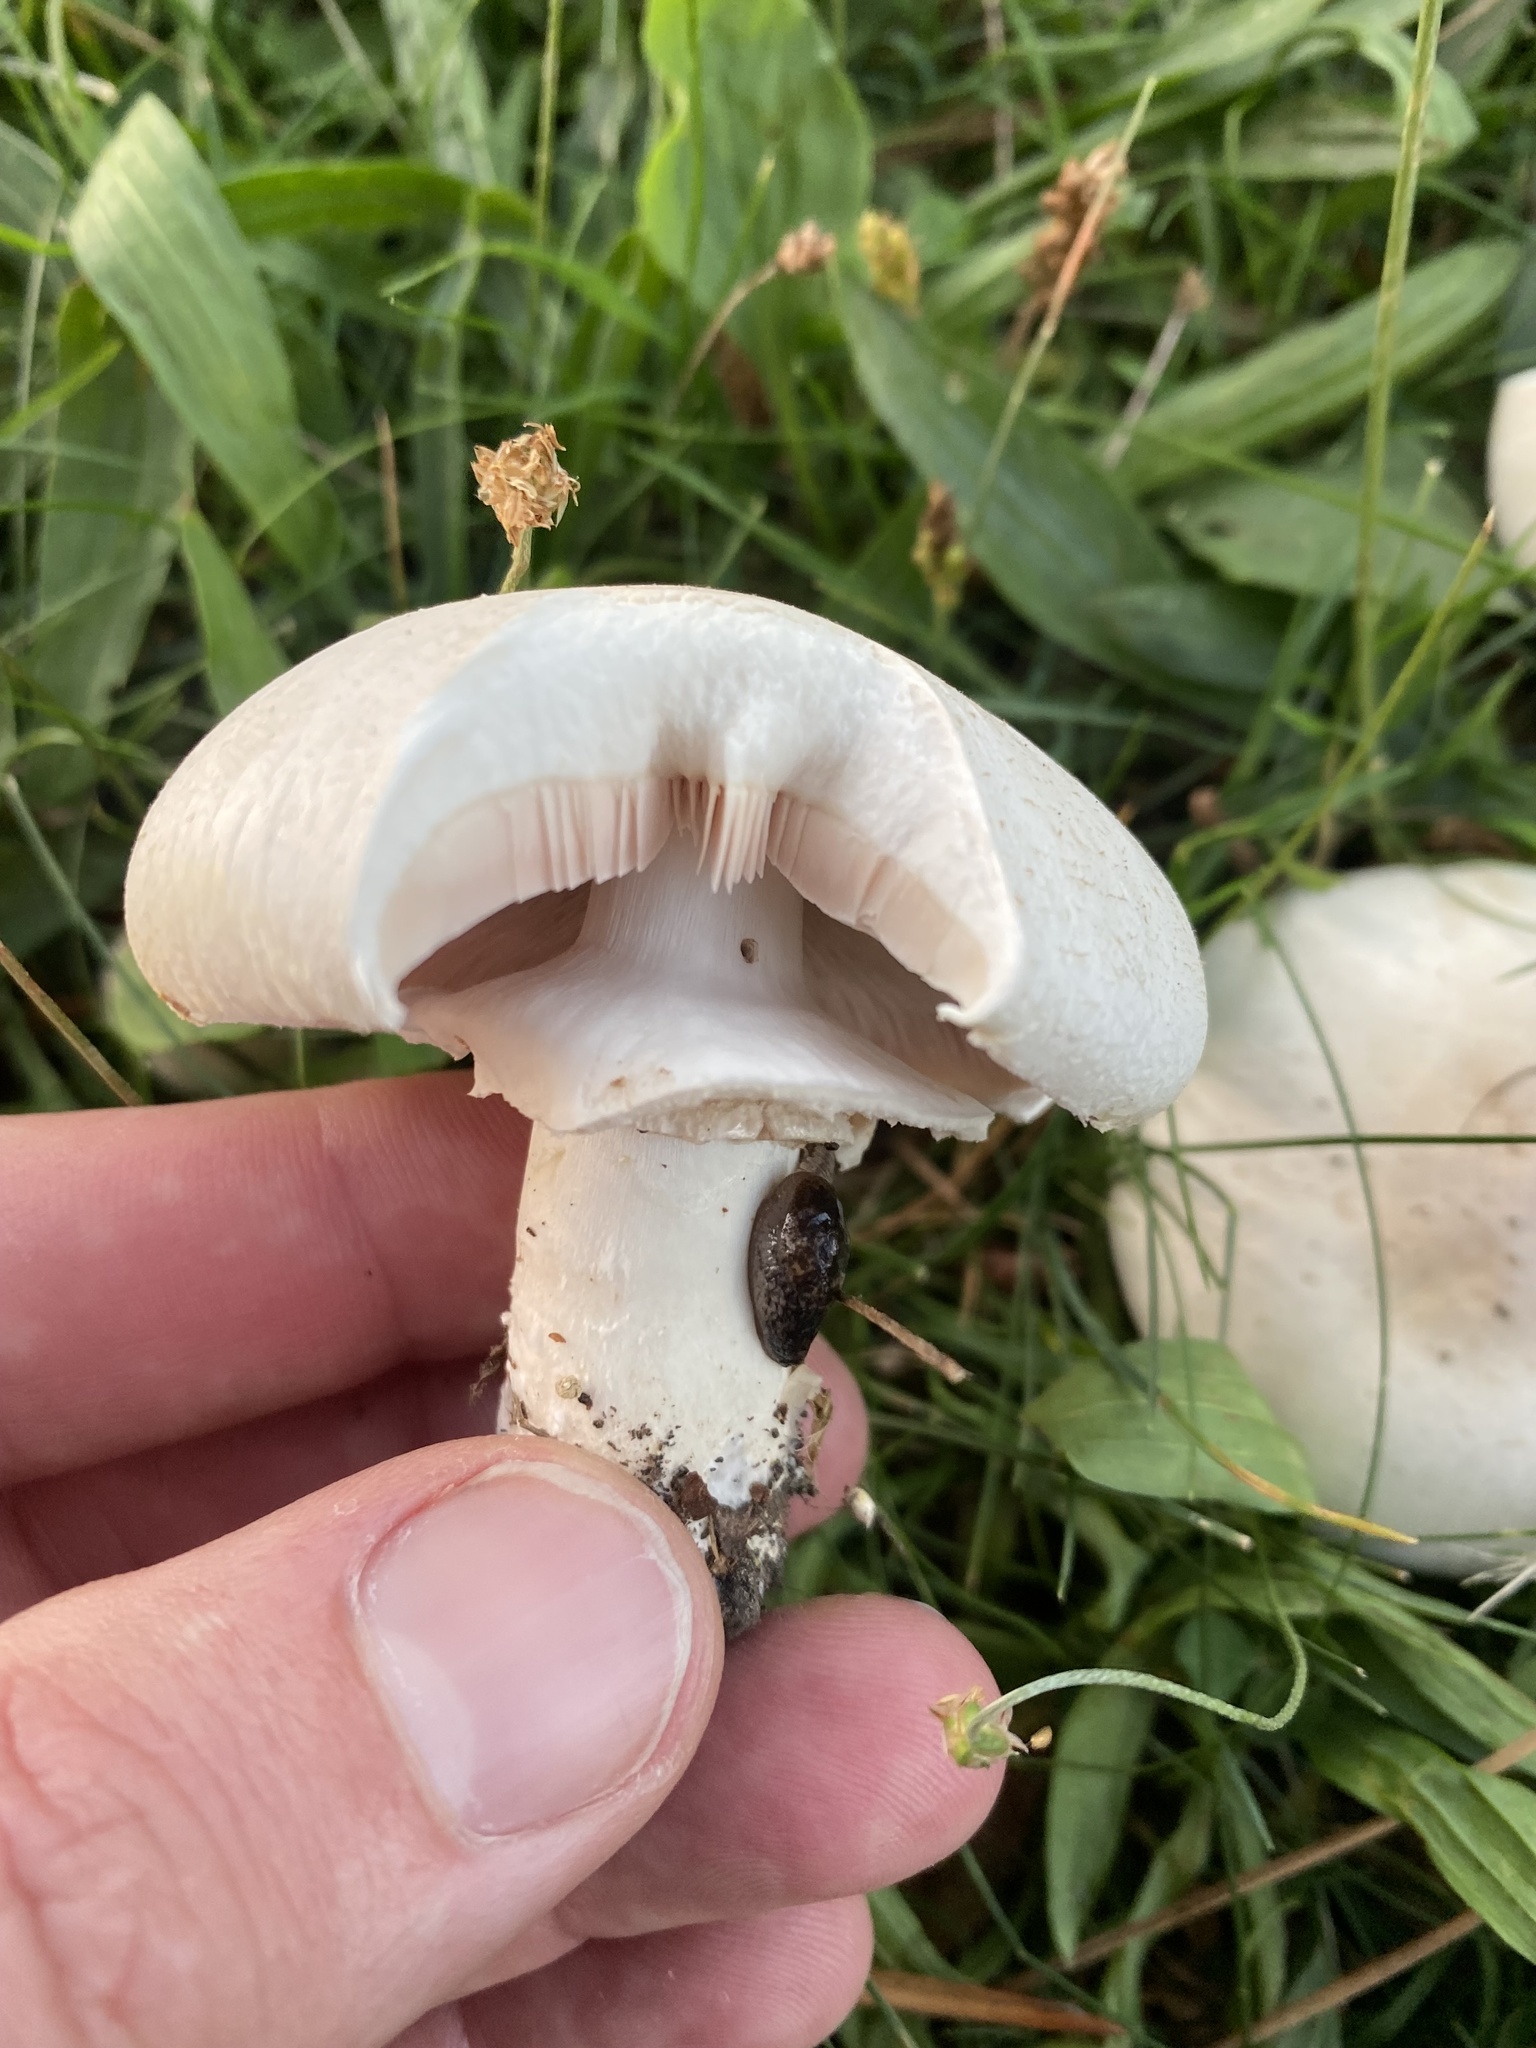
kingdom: Fungi
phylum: Basidiomycota
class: Agaricomycetes
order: Agaricales
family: Agaricaceae
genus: Agaricus
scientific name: Agaricus californicus
